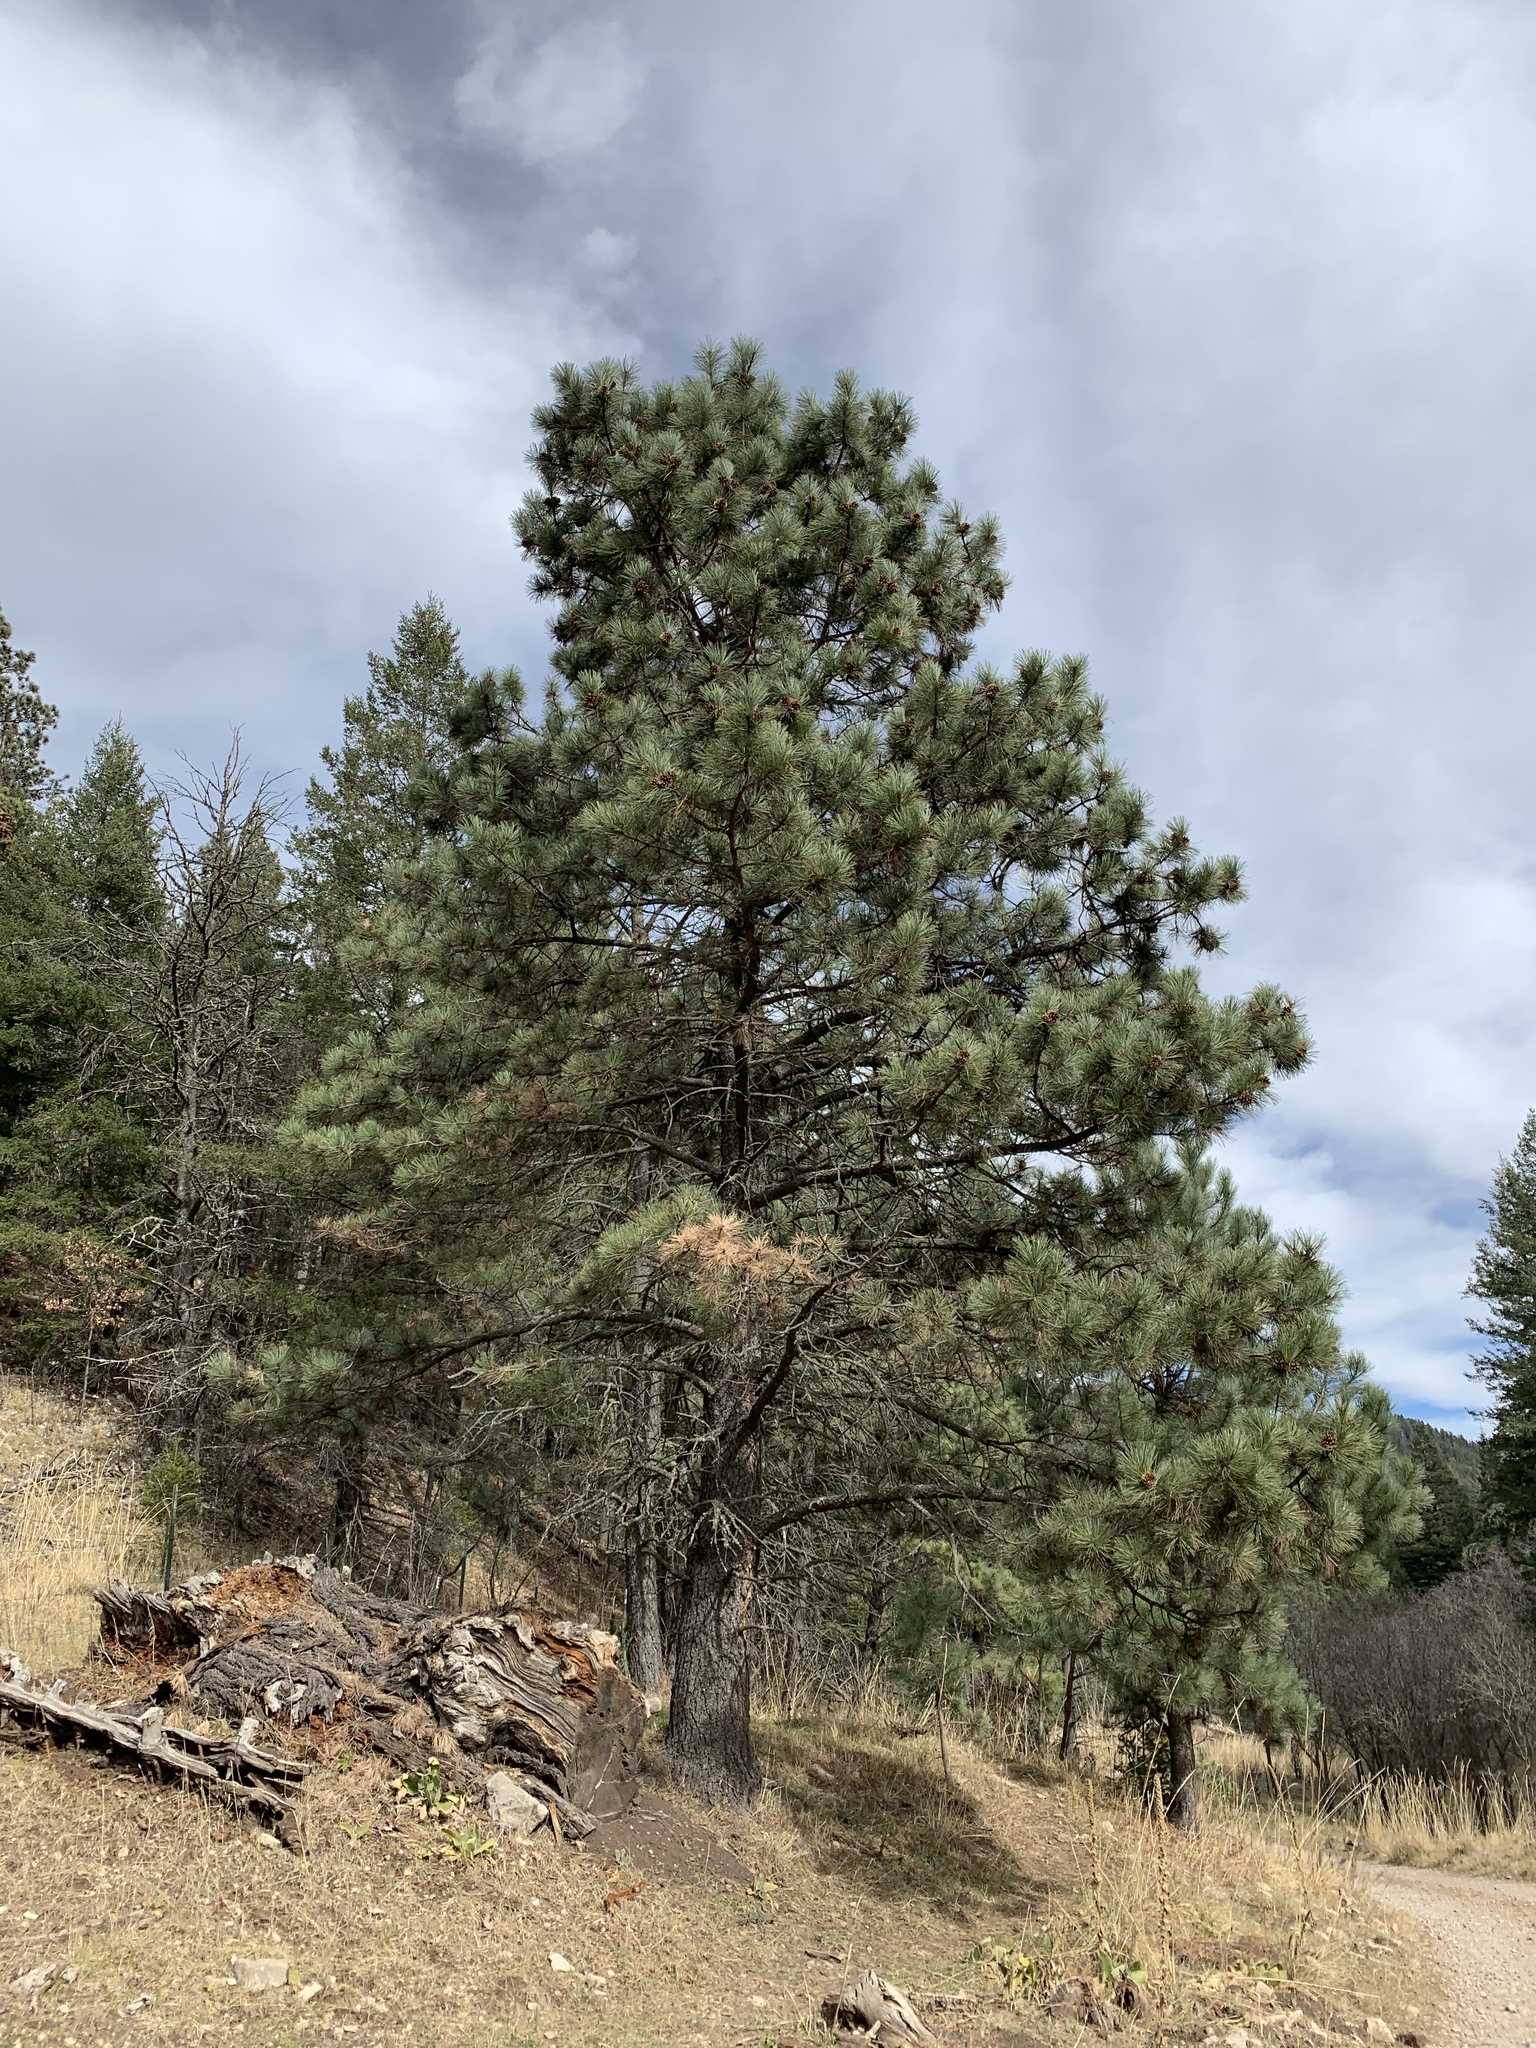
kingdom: Plantae
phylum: Tracheophyta
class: Pinopsida
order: Pinales
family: Pinaceae
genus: Pinus
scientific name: Pinus ponderosa
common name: Western yellow-pine
